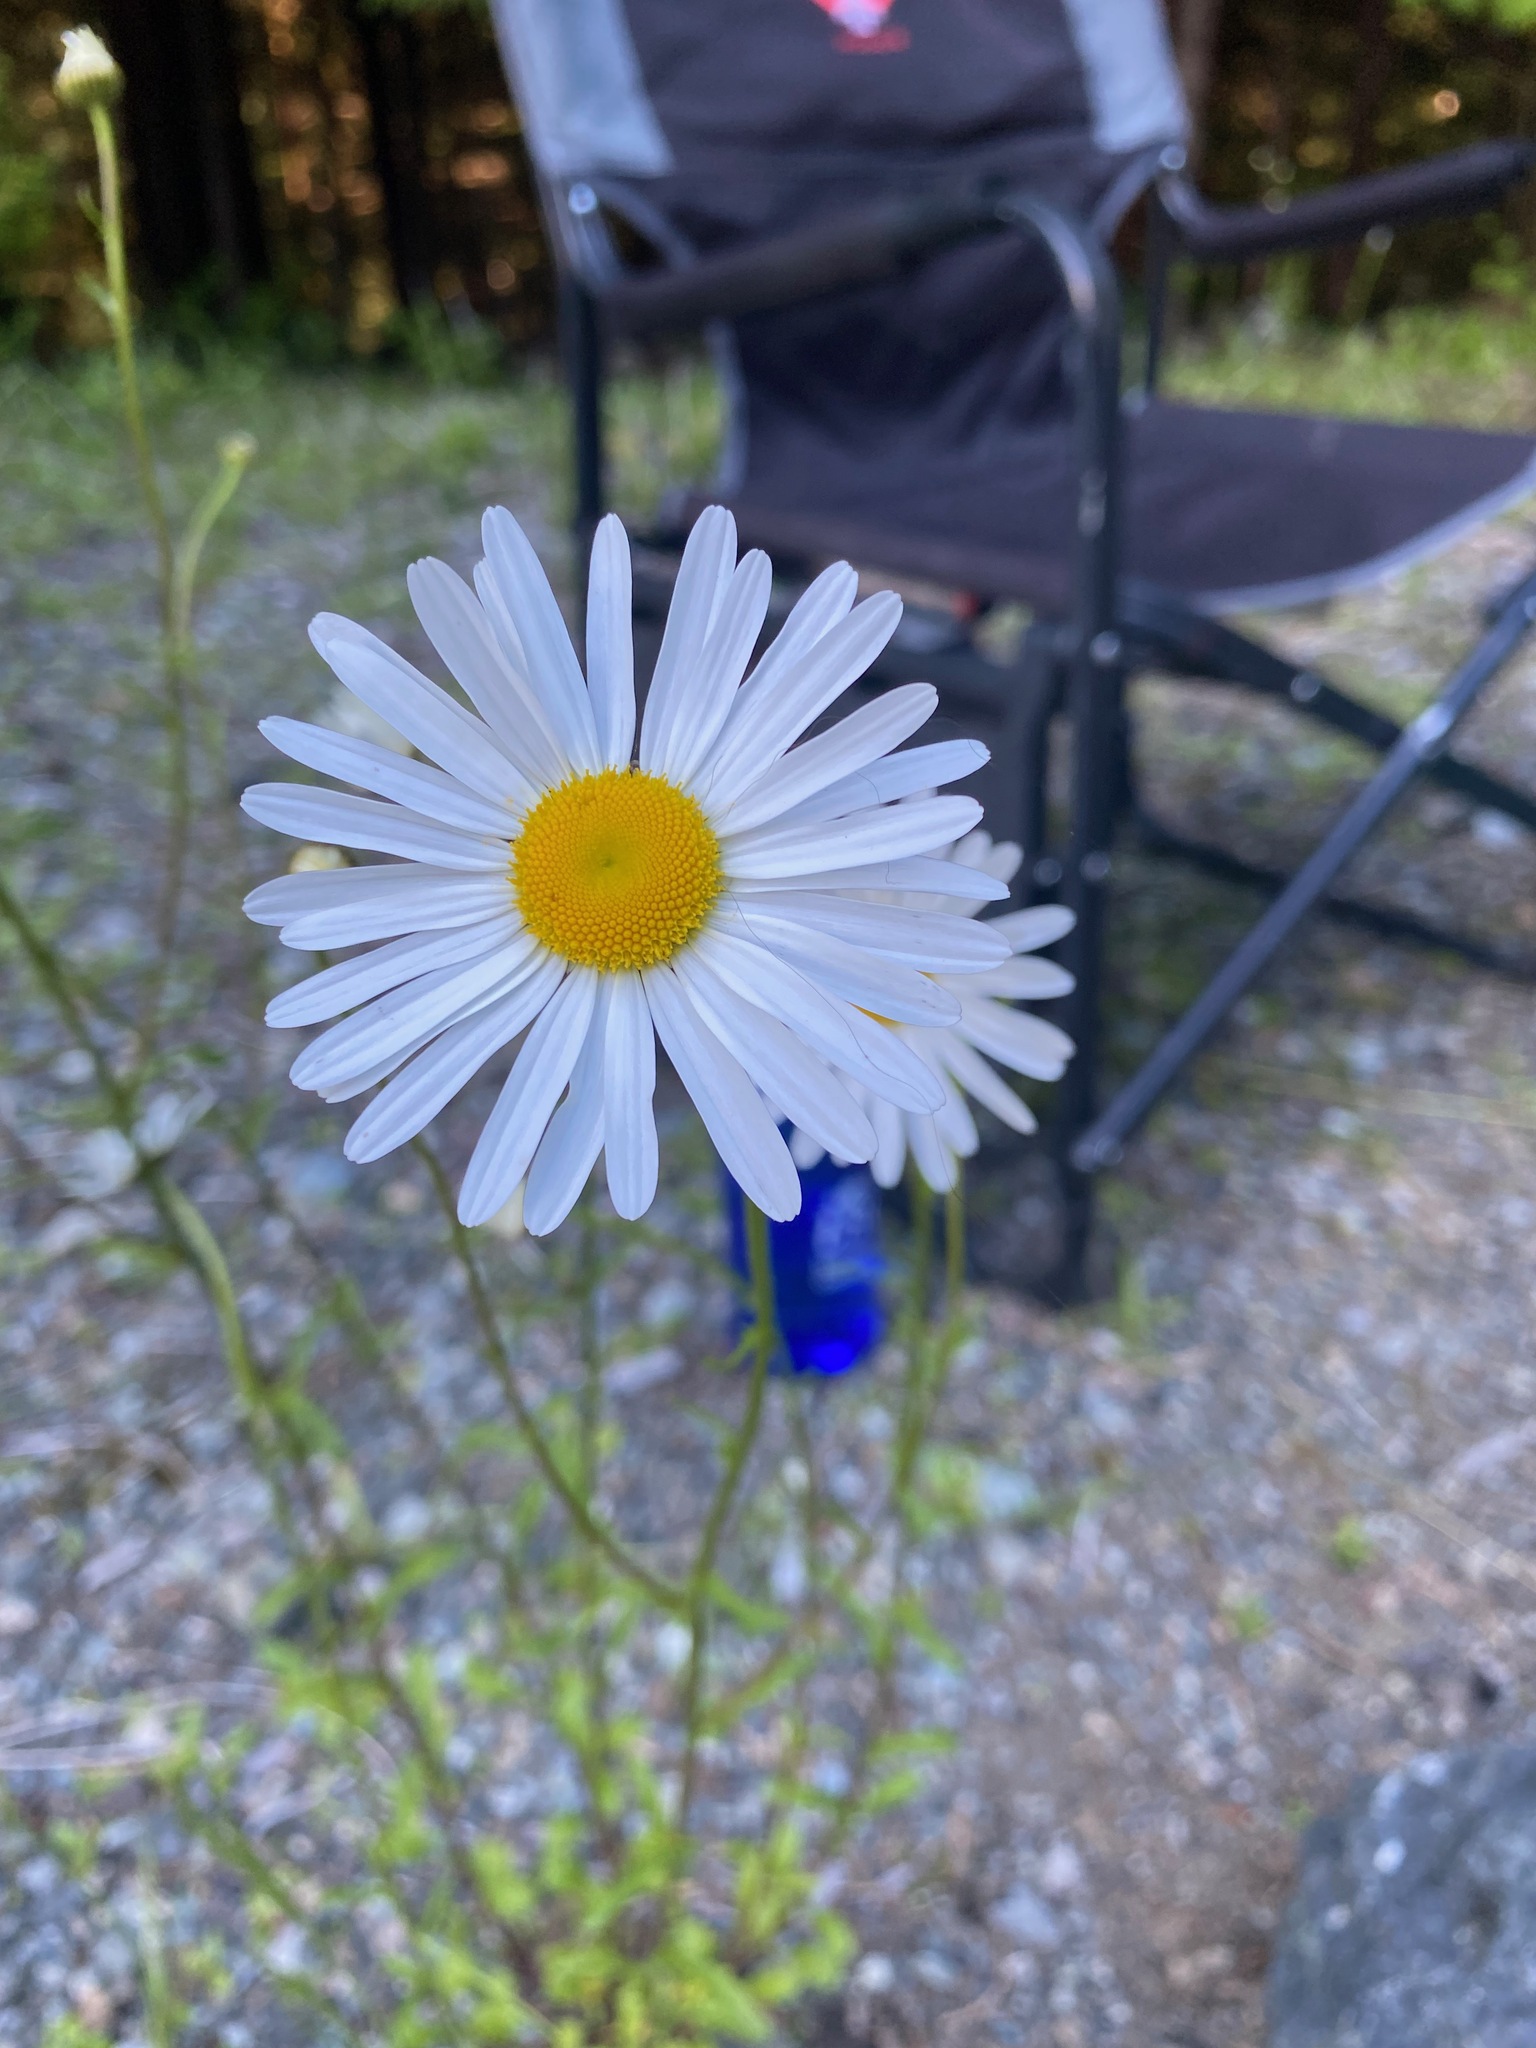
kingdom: Plantae
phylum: Tracheophyta
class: Magnoliopsida
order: Asterales
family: Asteraceae
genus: Leucanthemum
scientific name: Leucanthemum vulgare
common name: Oxeye daisy
